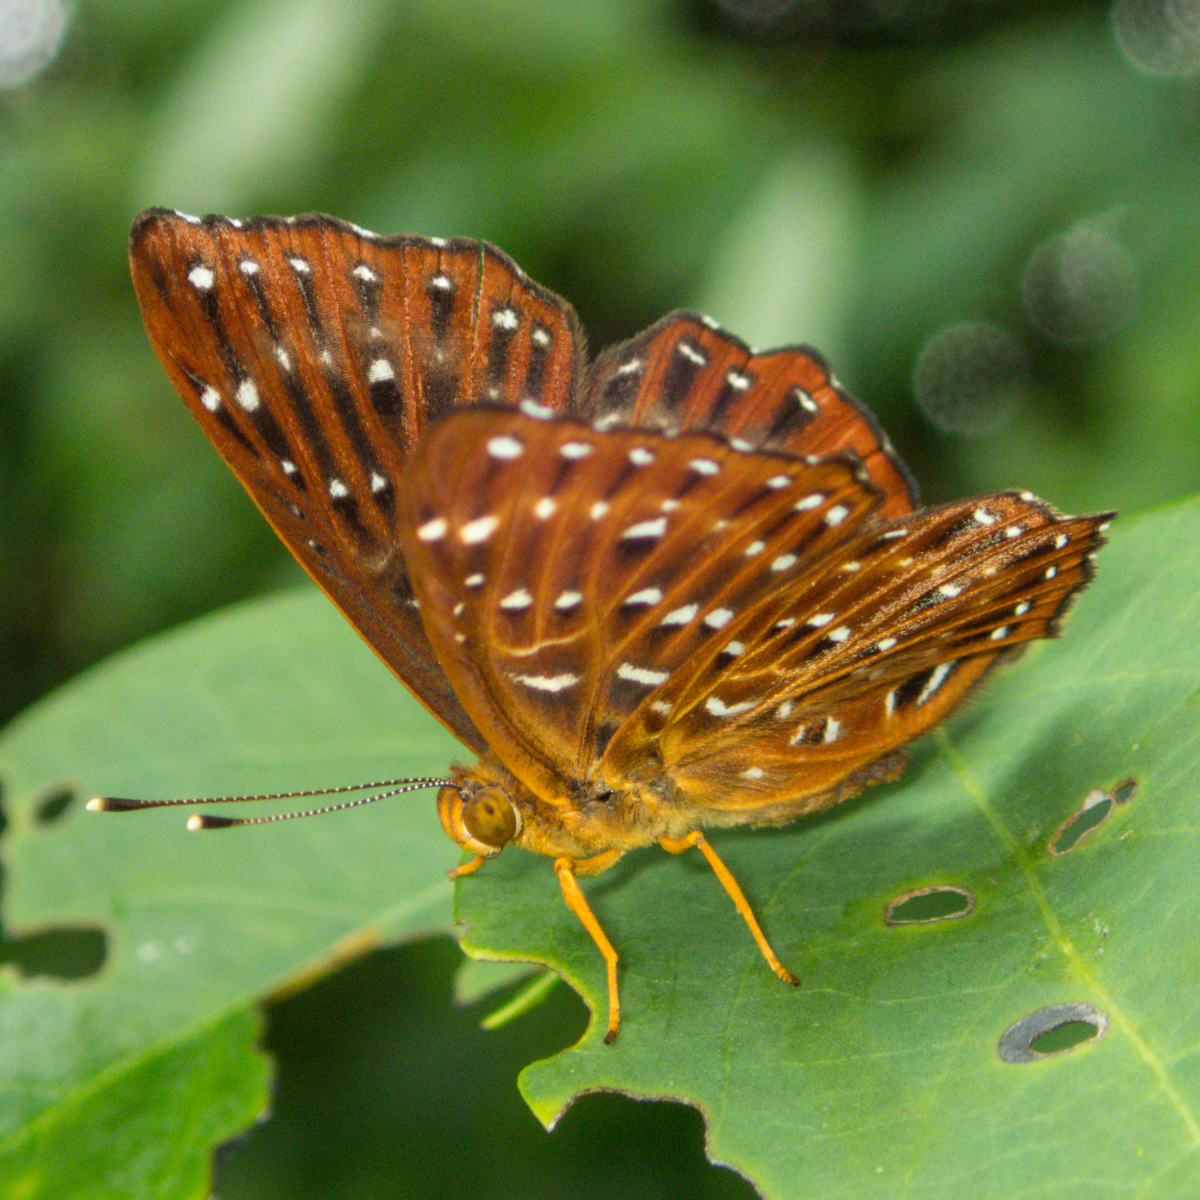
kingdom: Animalia
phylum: Arthropoda
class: Insecta
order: Lepidoptera
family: Riodinidae
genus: Zemeros
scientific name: Zemeros flegyas
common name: Punchinello
